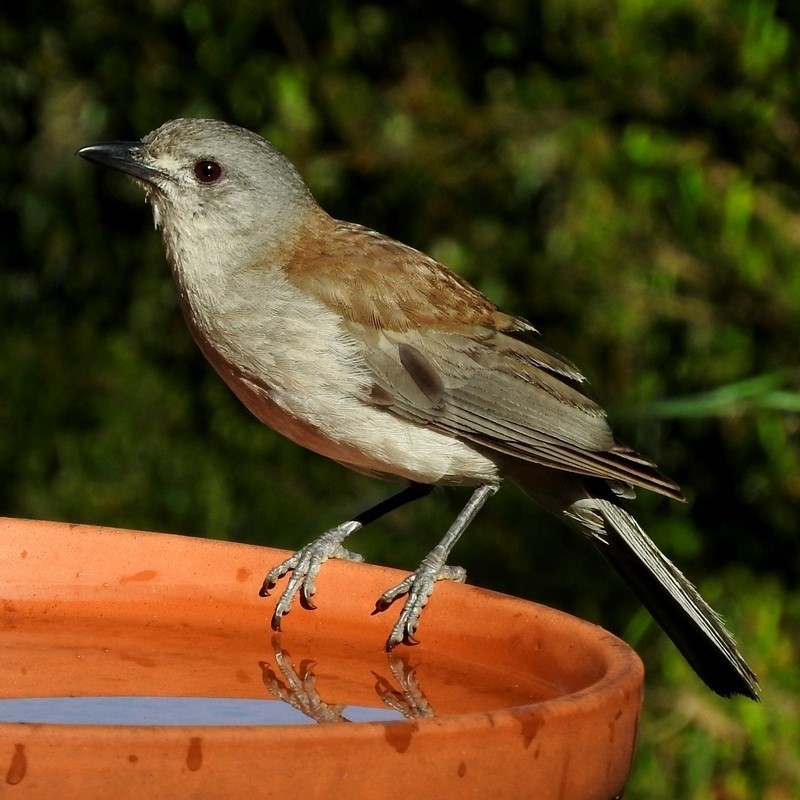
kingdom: Animalia
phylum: Chordata
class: Aves
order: Passeriformes
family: Pachycephalidae
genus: Colluricincla
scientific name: Colluricincla harmonica
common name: Grey shrikethrush
